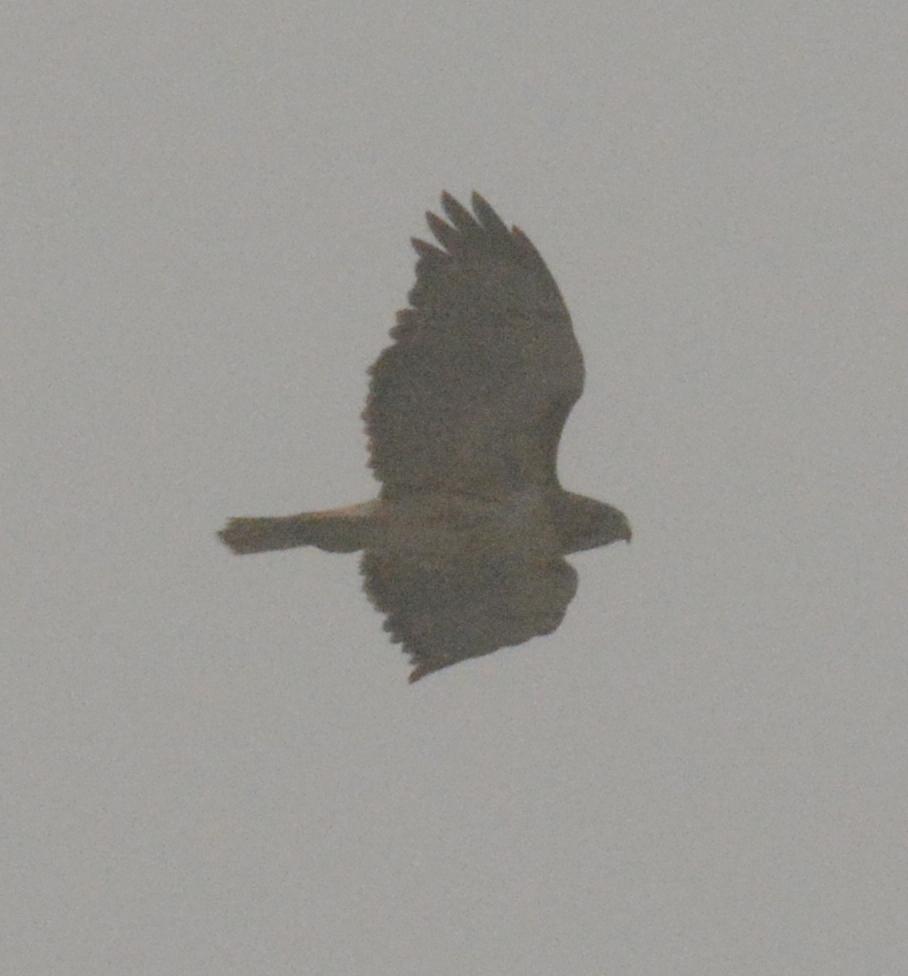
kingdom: Animalia
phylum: Chordata
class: Aves
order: Accipitriformes
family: Accipitridae
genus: Buteo
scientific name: Buteo jamaicensis
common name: Red-tailed hawk
